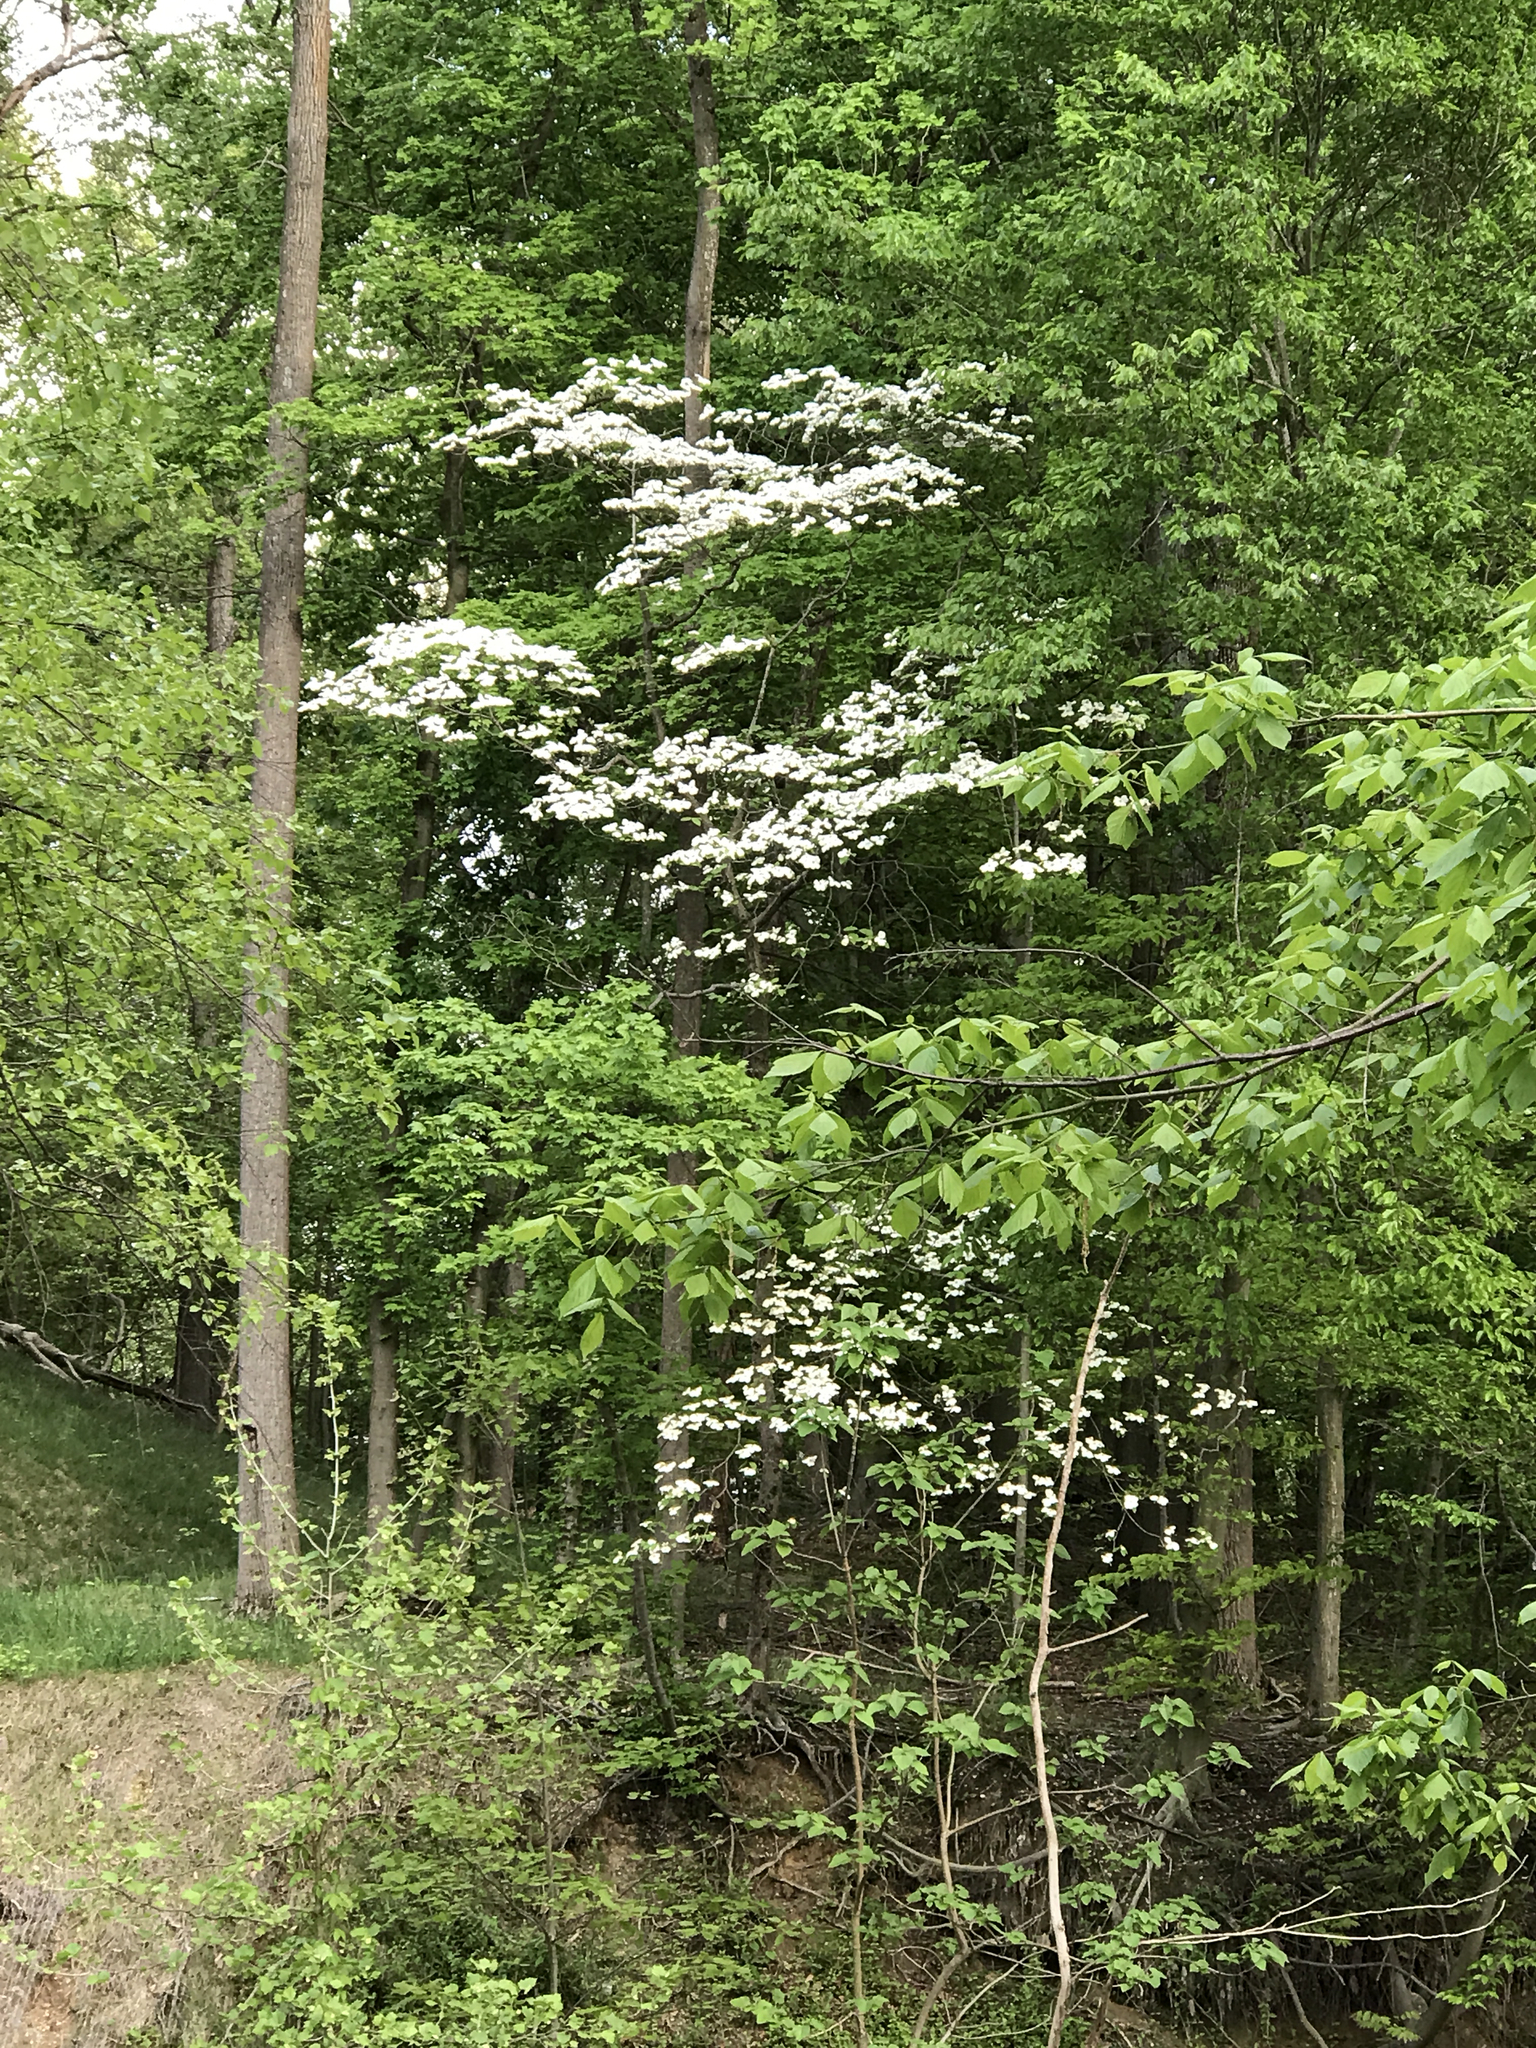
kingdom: Plantae
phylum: Tracheophyta
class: Magnoliopsida
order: Cornales
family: Cornaceae
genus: Cornus
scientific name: Cornus florida
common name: Flowering dogwood
